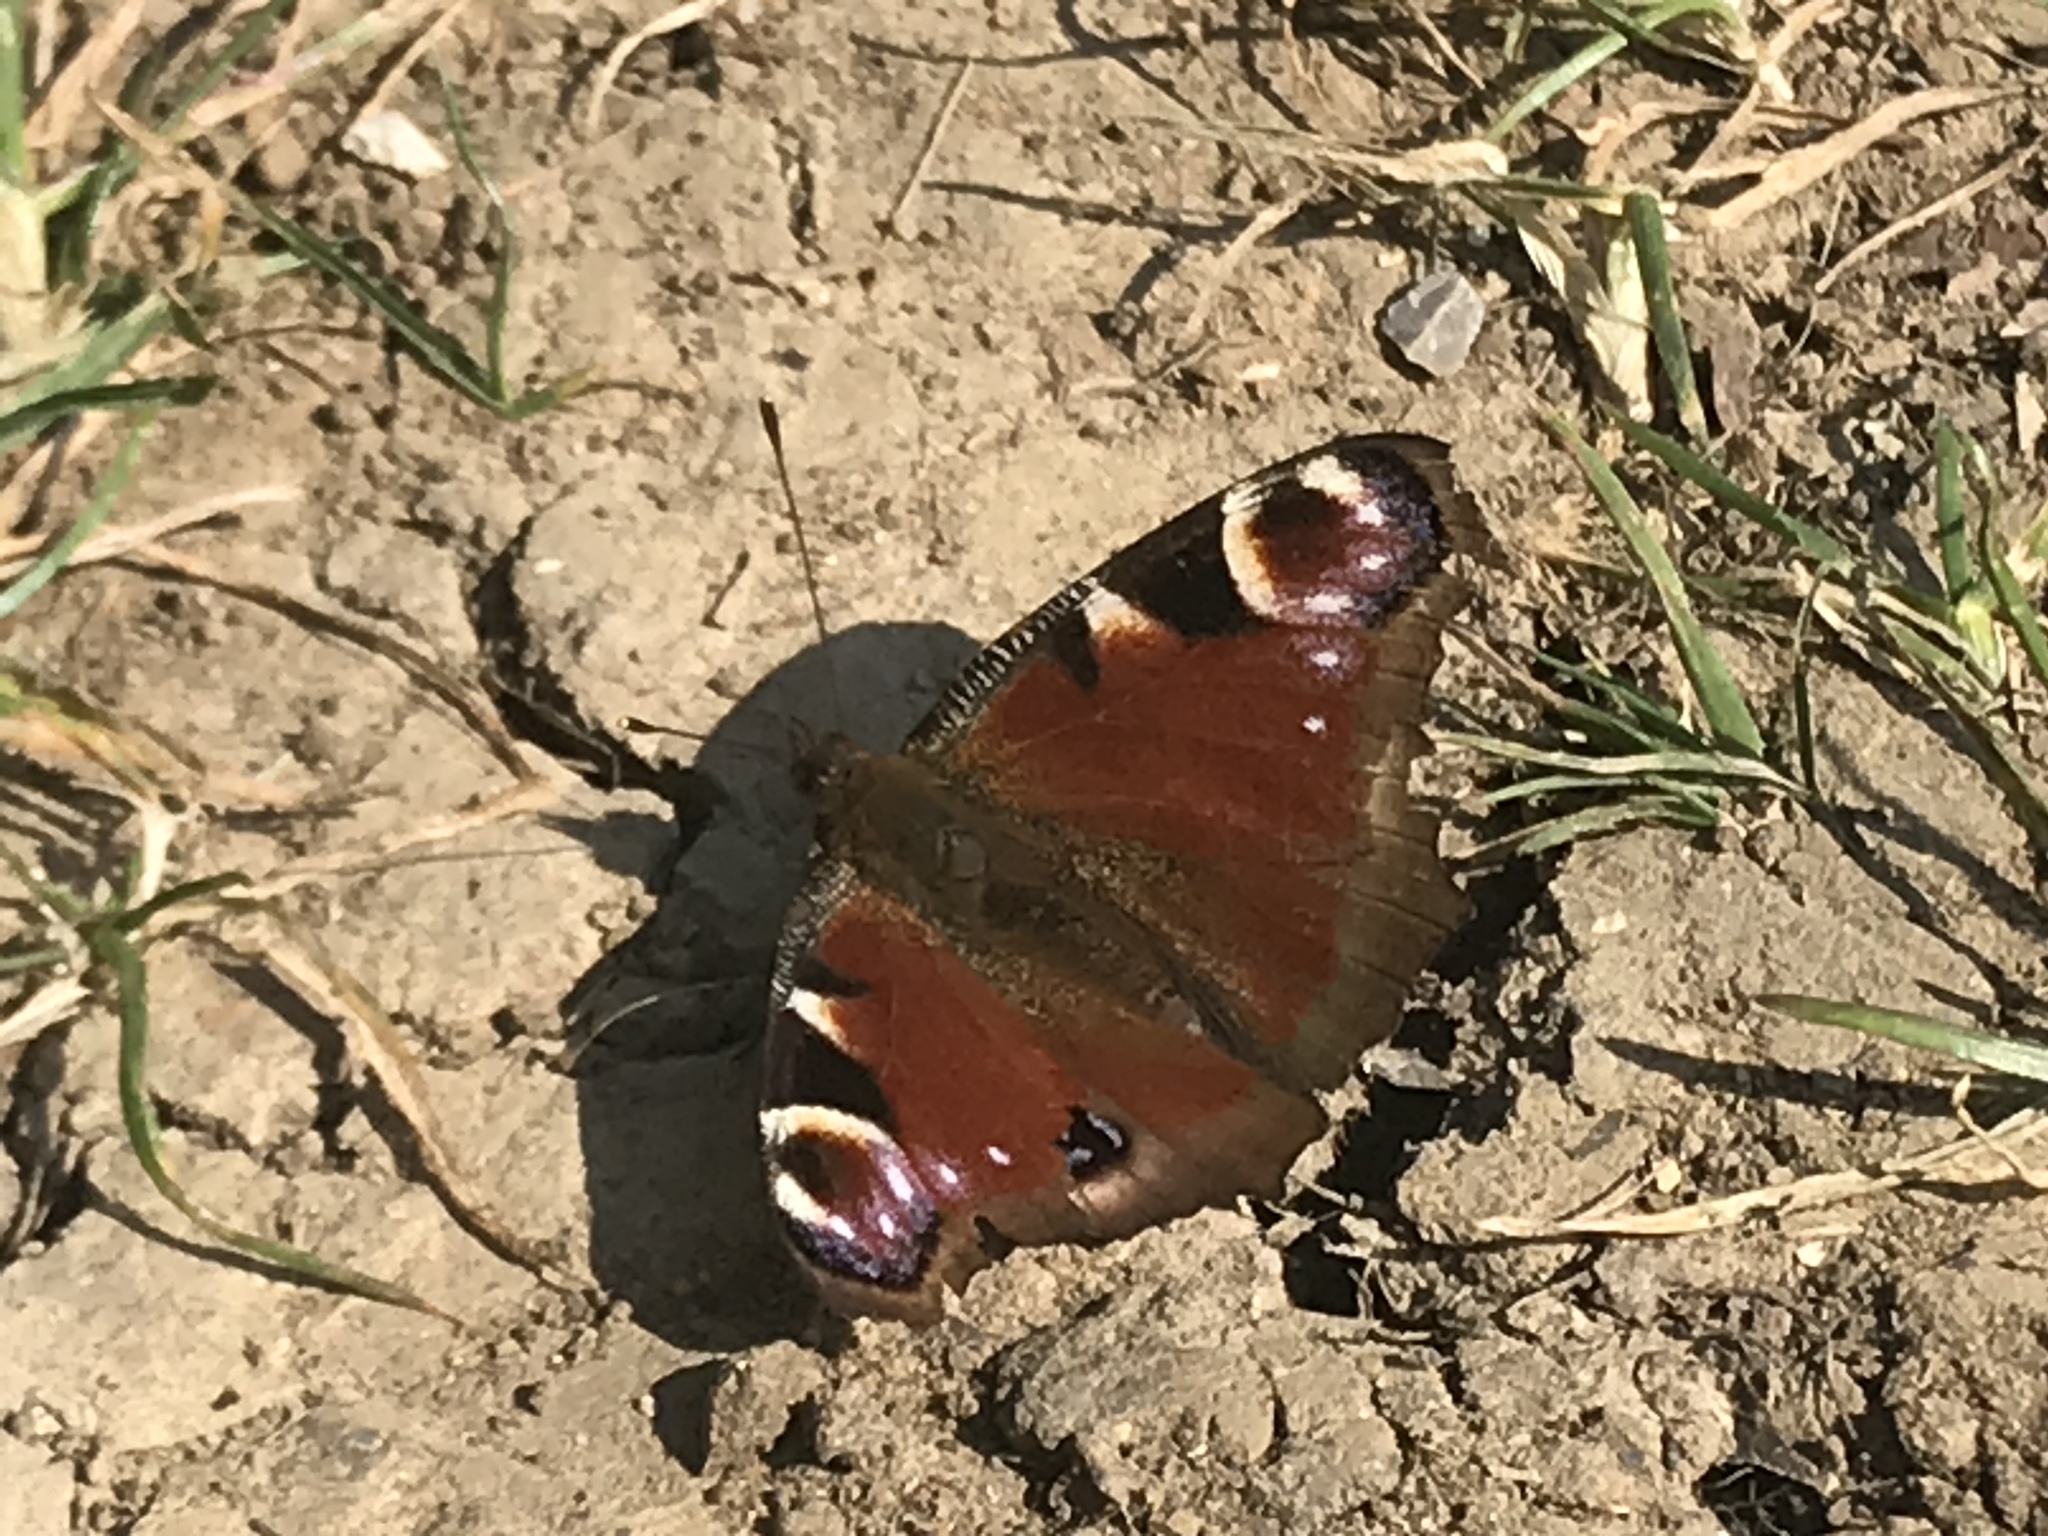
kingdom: Animalia
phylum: Arthropoda
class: Insecta
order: Lepidoptera
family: Nymphalidae
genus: Aglais
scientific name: Aglais io
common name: Peacock
